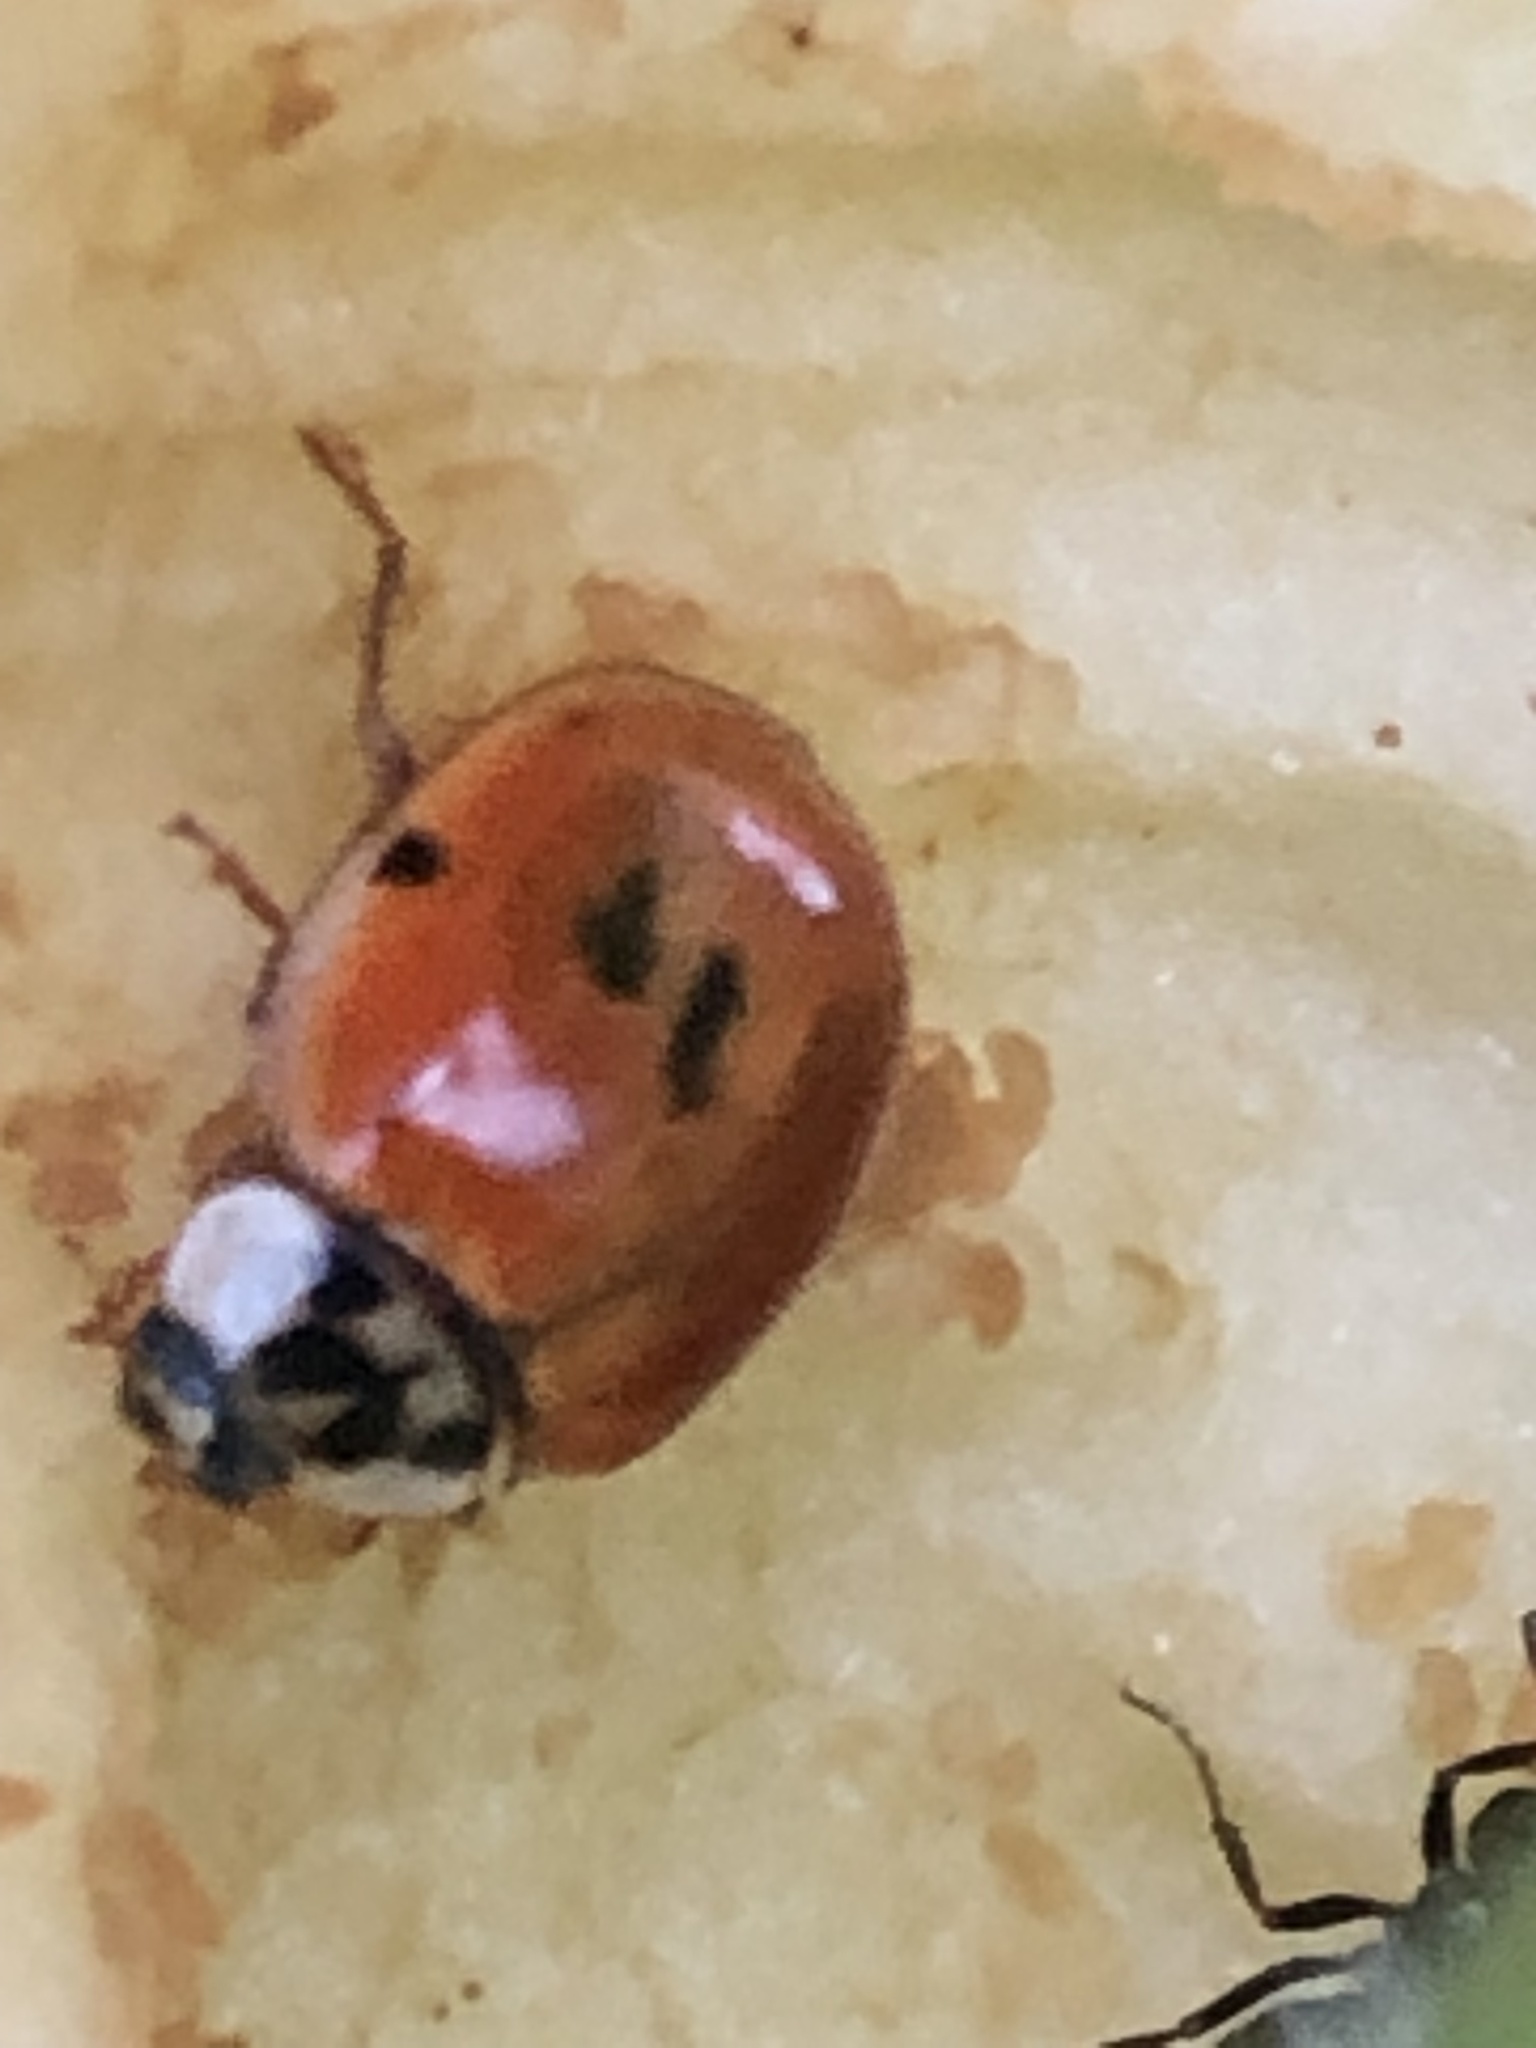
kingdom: Animalia
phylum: Arthropoda
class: Insecta
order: Coleoptera
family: Coccinellidae
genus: Harmonia
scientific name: Harmonia axyridis
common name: Harlequin ladybird
